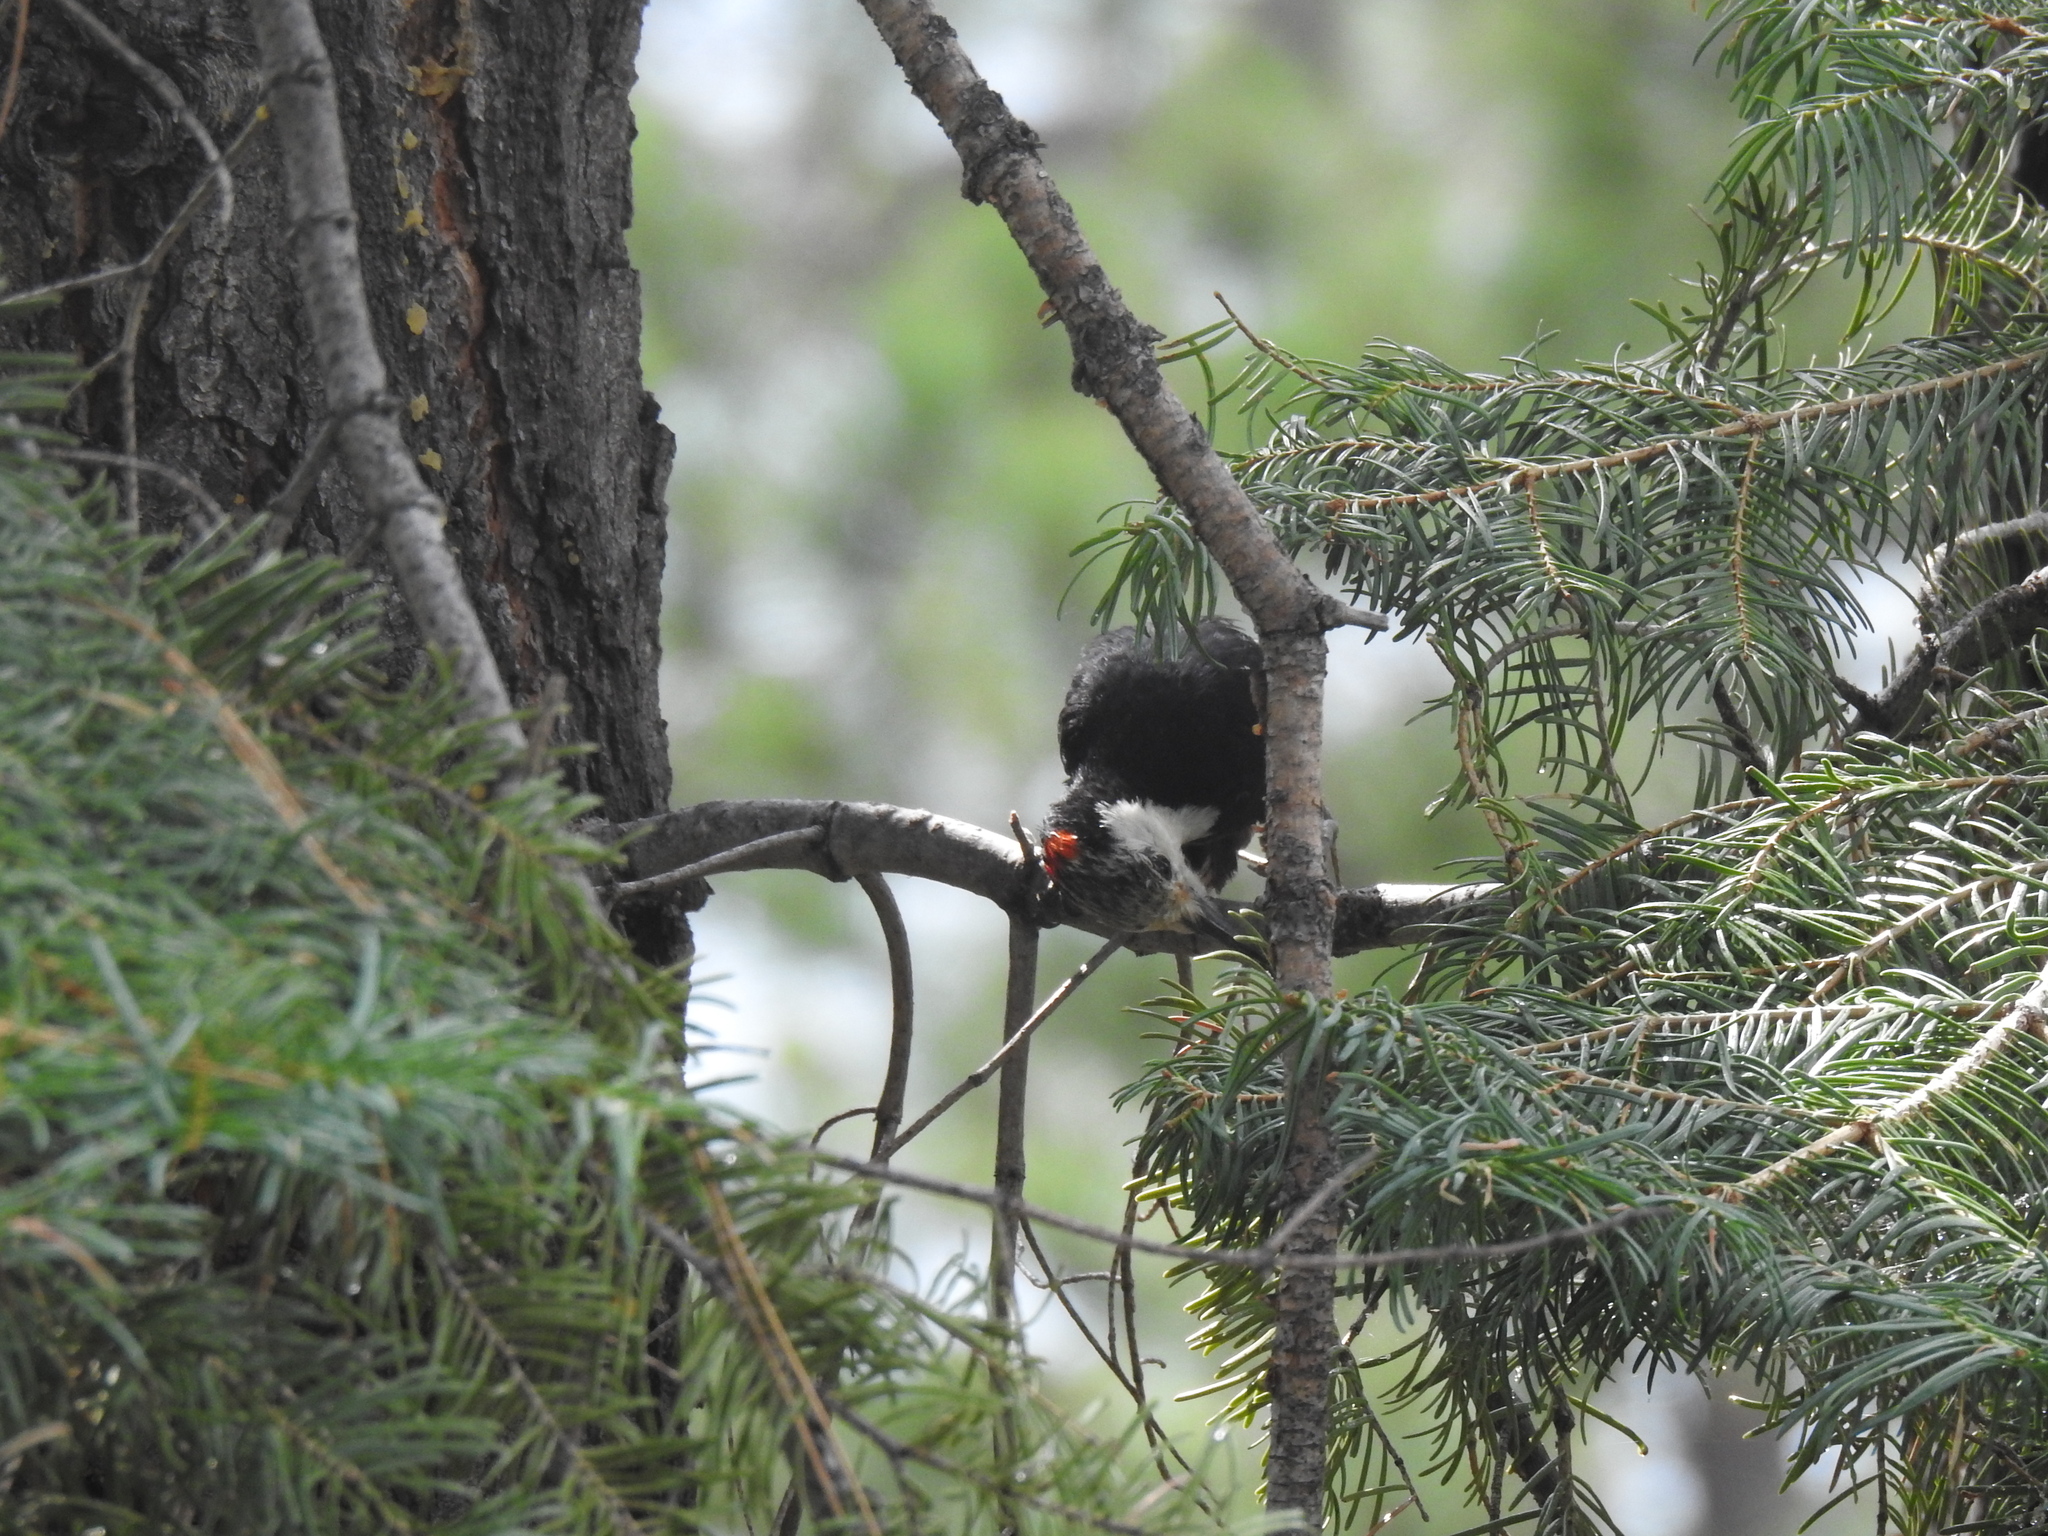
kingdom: Animalia
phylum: Chordata
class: Aves
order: Piciformes
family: Picidae
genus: Leuconotopicus
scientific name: Leuconotopicus albolarvatus
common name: White-headed woodpecker
